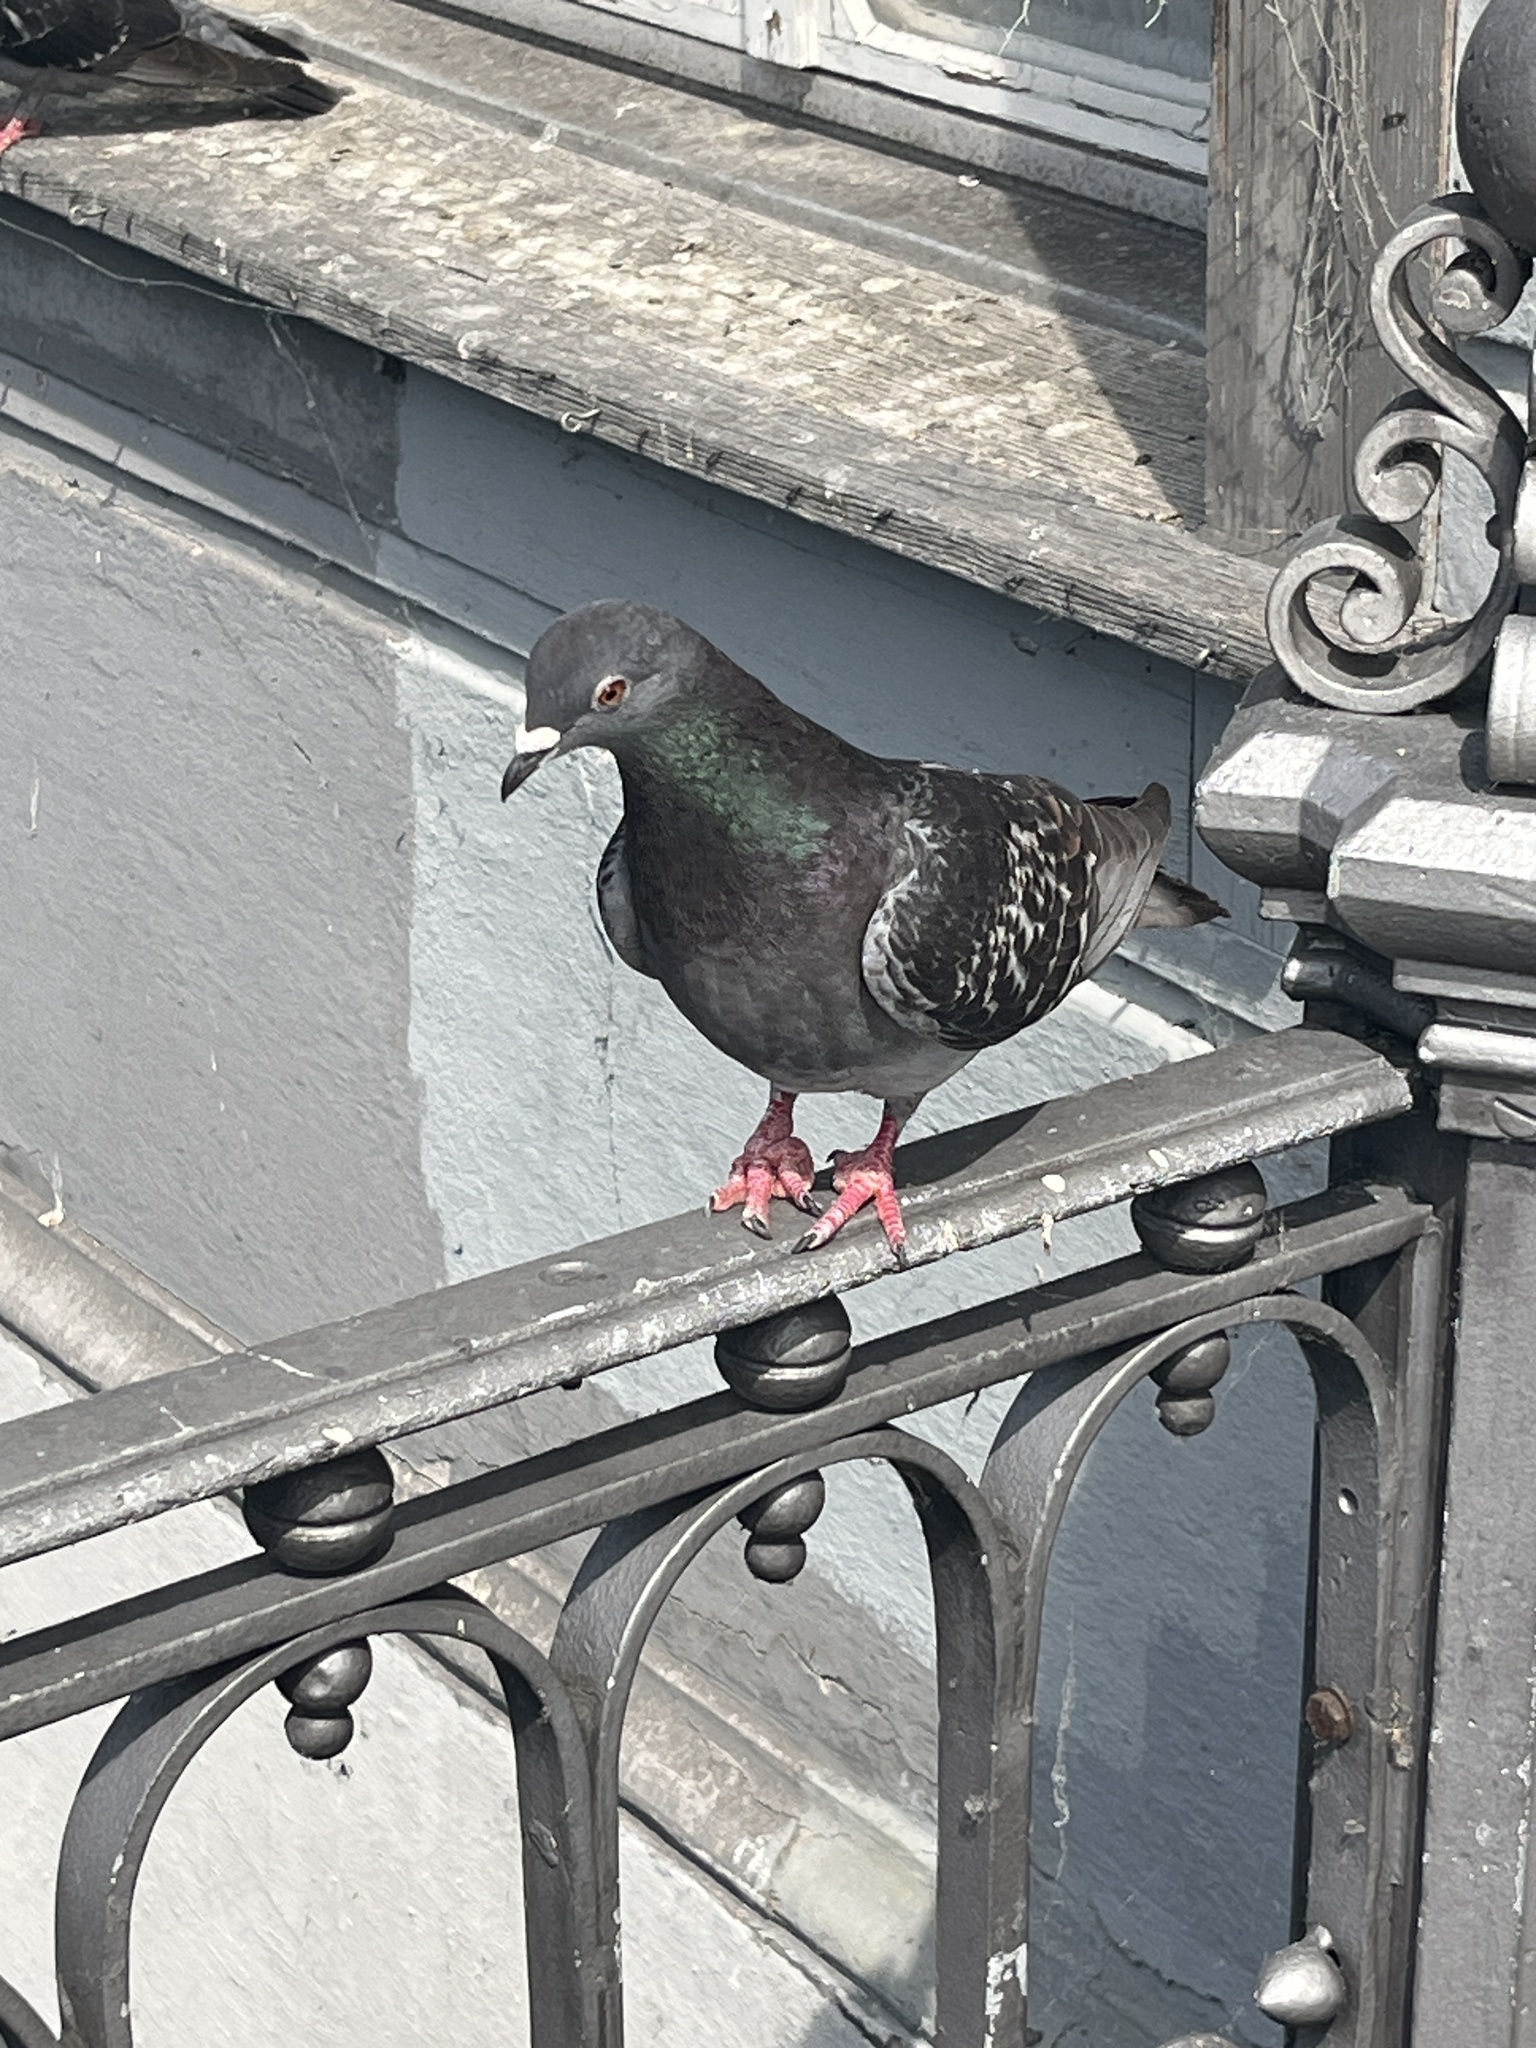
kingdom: Animalia
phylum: Chordata
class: Aves
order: Columbiformes
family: Columbidae
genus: Columba
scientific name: Columba livia
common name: Rock pigeon
